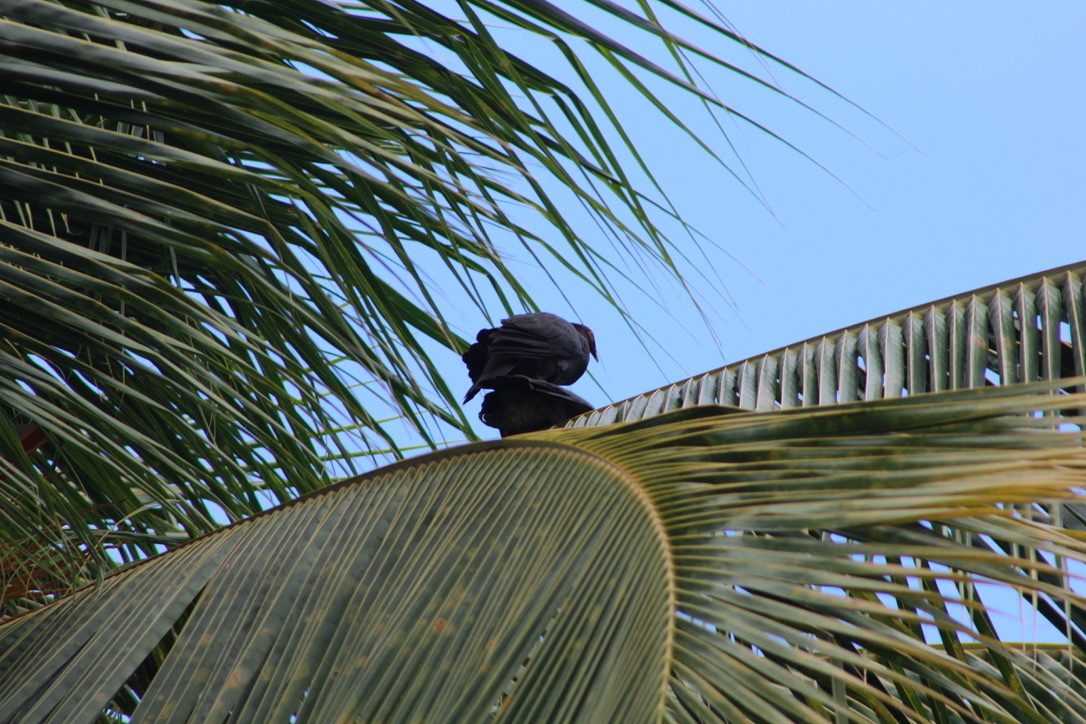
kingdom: Animalia
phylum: Chordata
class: Aves
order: Columbiformes
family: Columbidae
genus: Patagioenas
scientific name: Patagioenas squamosa
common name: Scaly-naped pigeon
